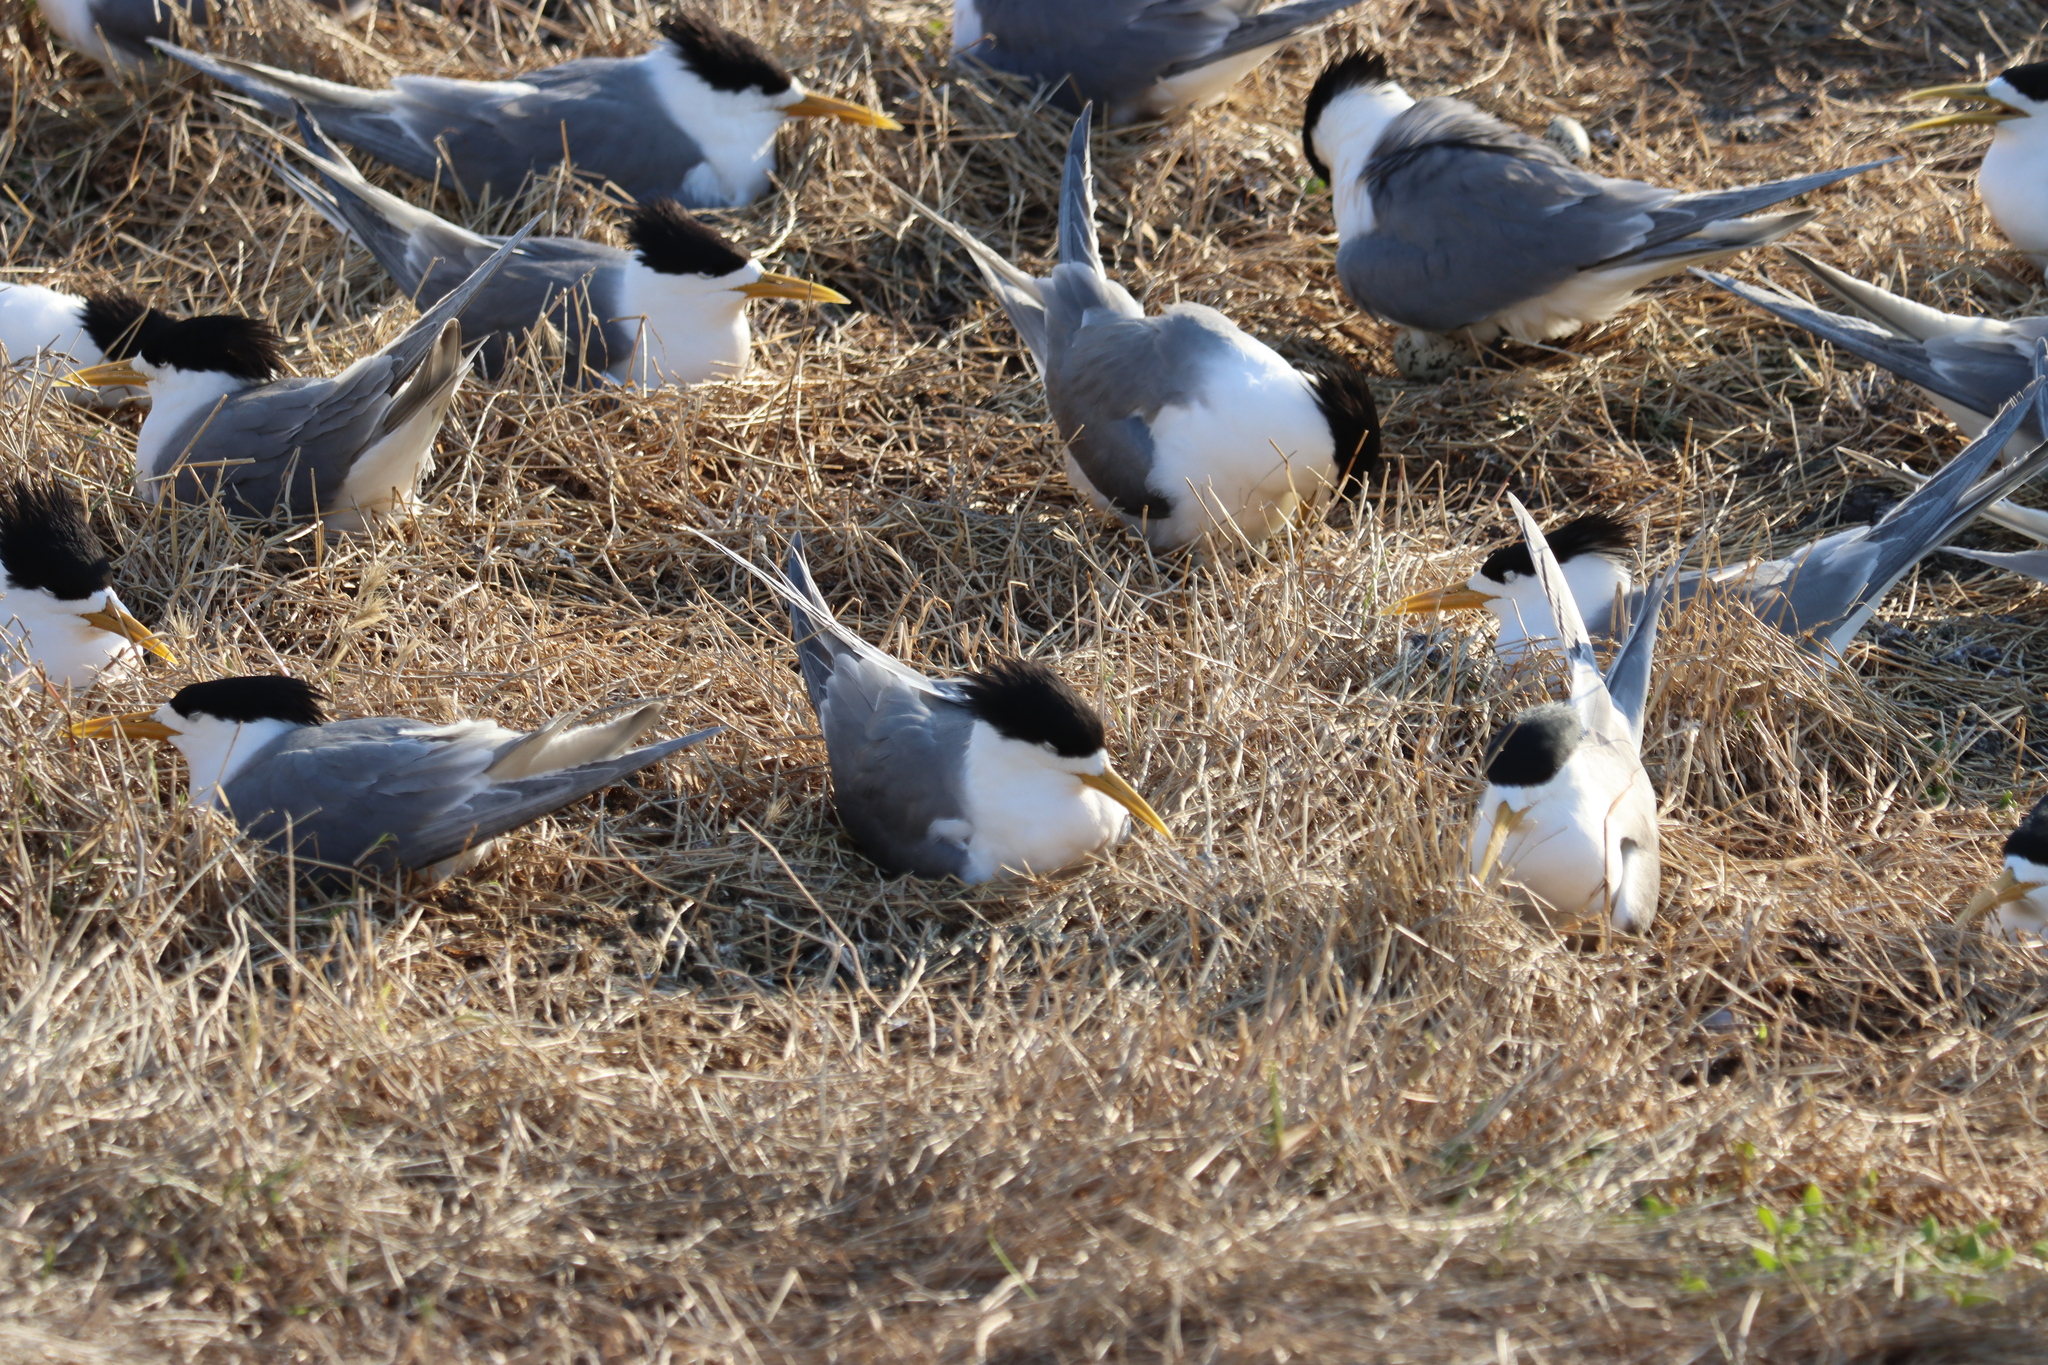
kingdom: Animalia
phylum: Chordata
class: Aves
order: Charadriiformes
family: Laridae
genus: Thalasseus
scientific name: Thalasseus bergii
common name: Greater crested tern
